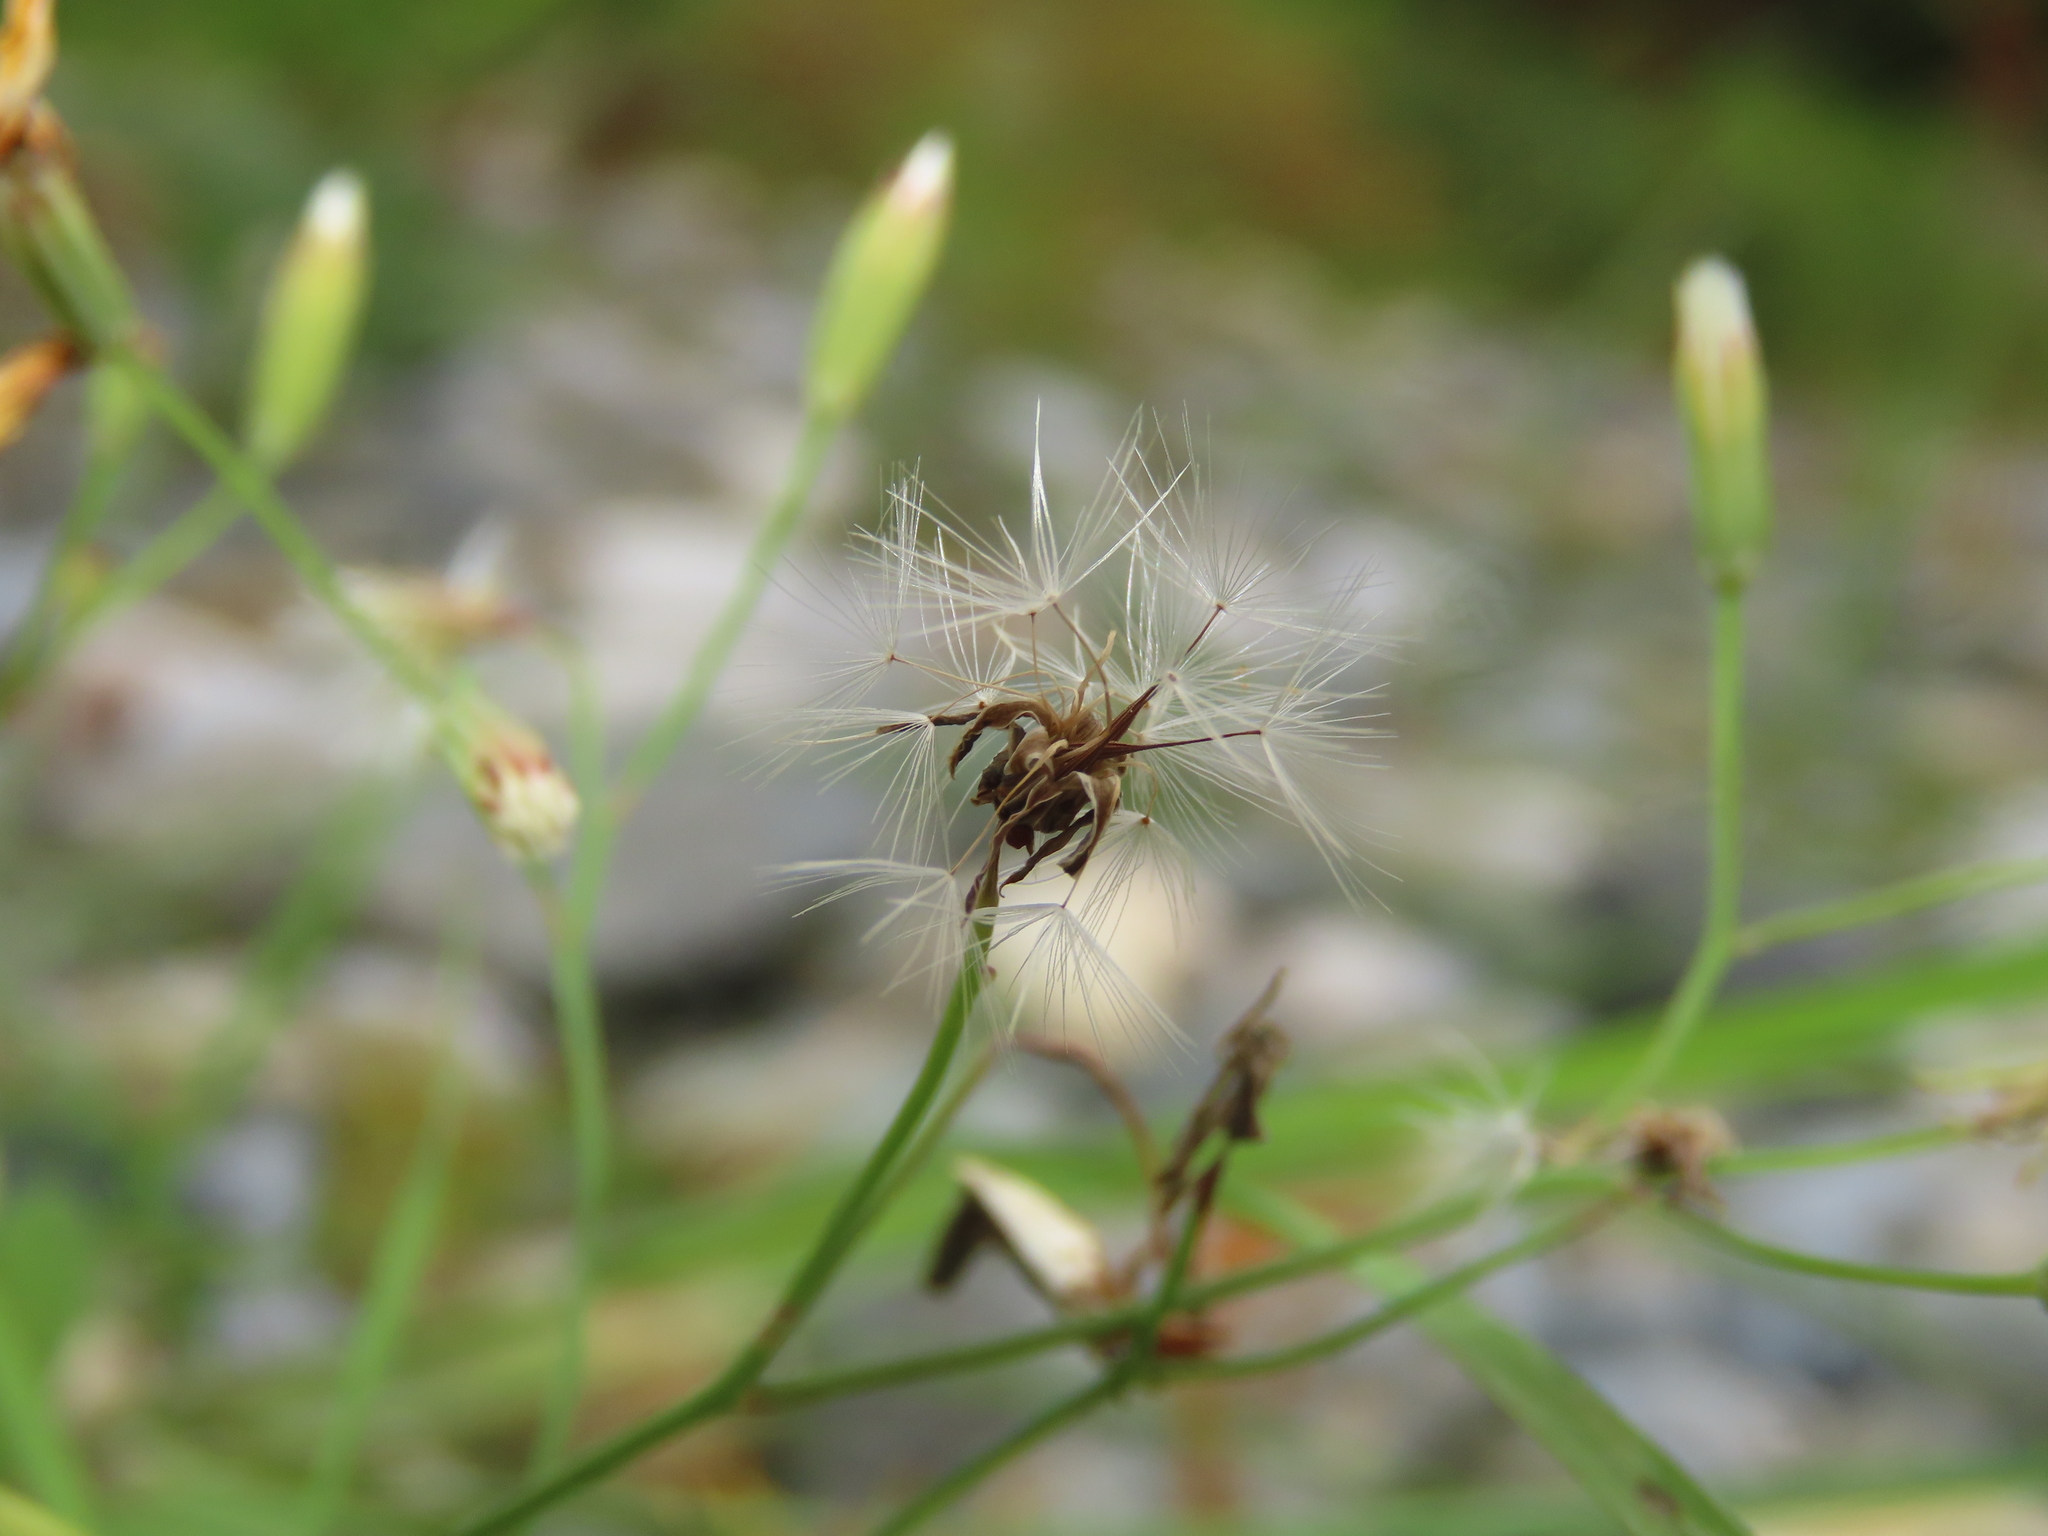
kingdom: Plantae
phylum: Tracheophyta
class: Magnoliopsida
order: Asterales
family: Asteraceae
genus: Ixeris
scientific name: Ixeris tamagawaensis
